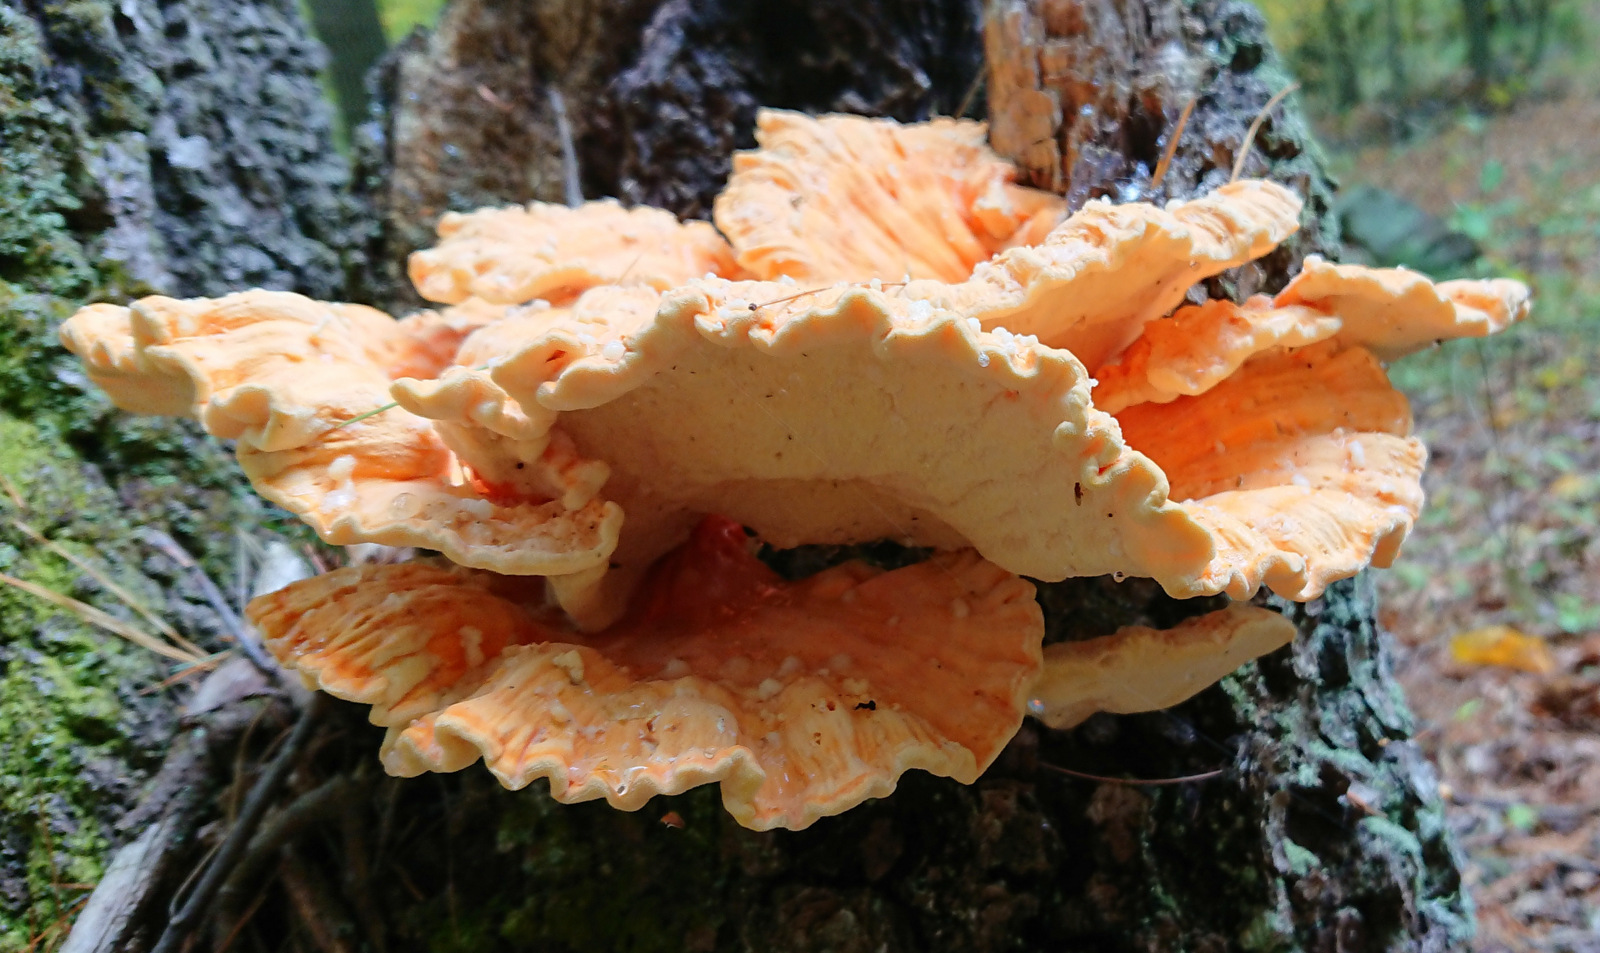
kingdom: Fungi
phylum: Basidiomycota
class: Agaricomycetes
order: Polyporales
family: Laetiporaceae
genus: Laetiporus
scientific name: Laetiporus sulphureus
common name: Chicken of the woods
